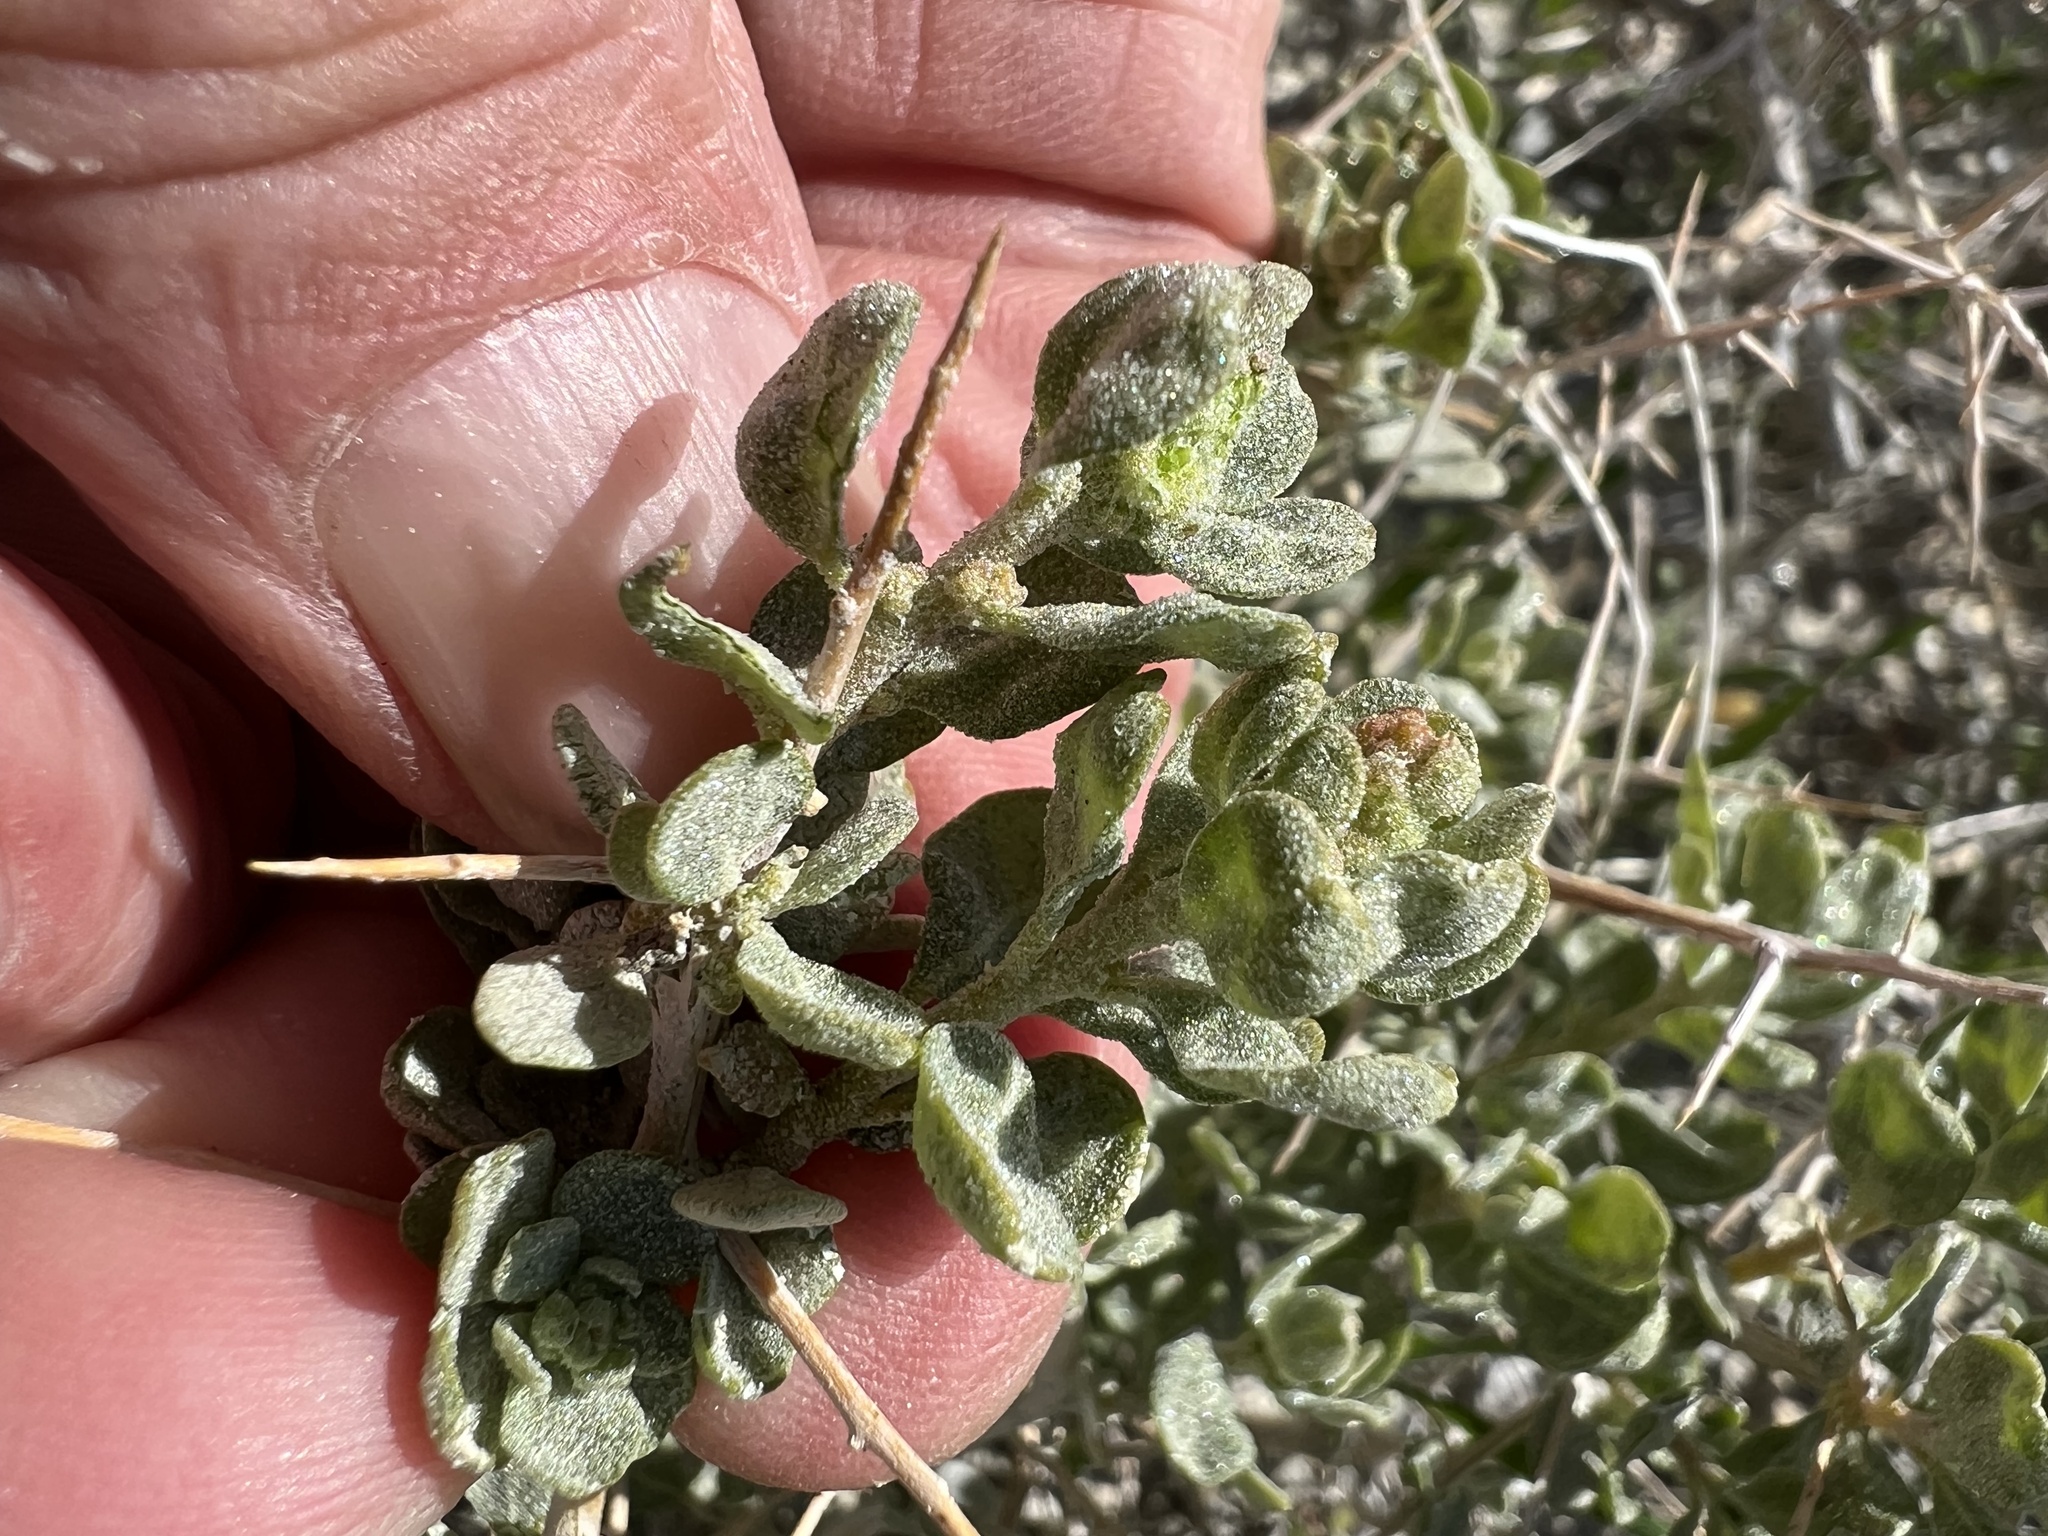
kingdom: Plantae
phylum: Tracheophyta
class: Magnoliopsida
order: Caryophyllales
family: Amaranthaceae
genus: Atriplex
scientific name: Atriplex confertifolia
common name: Shadscale
